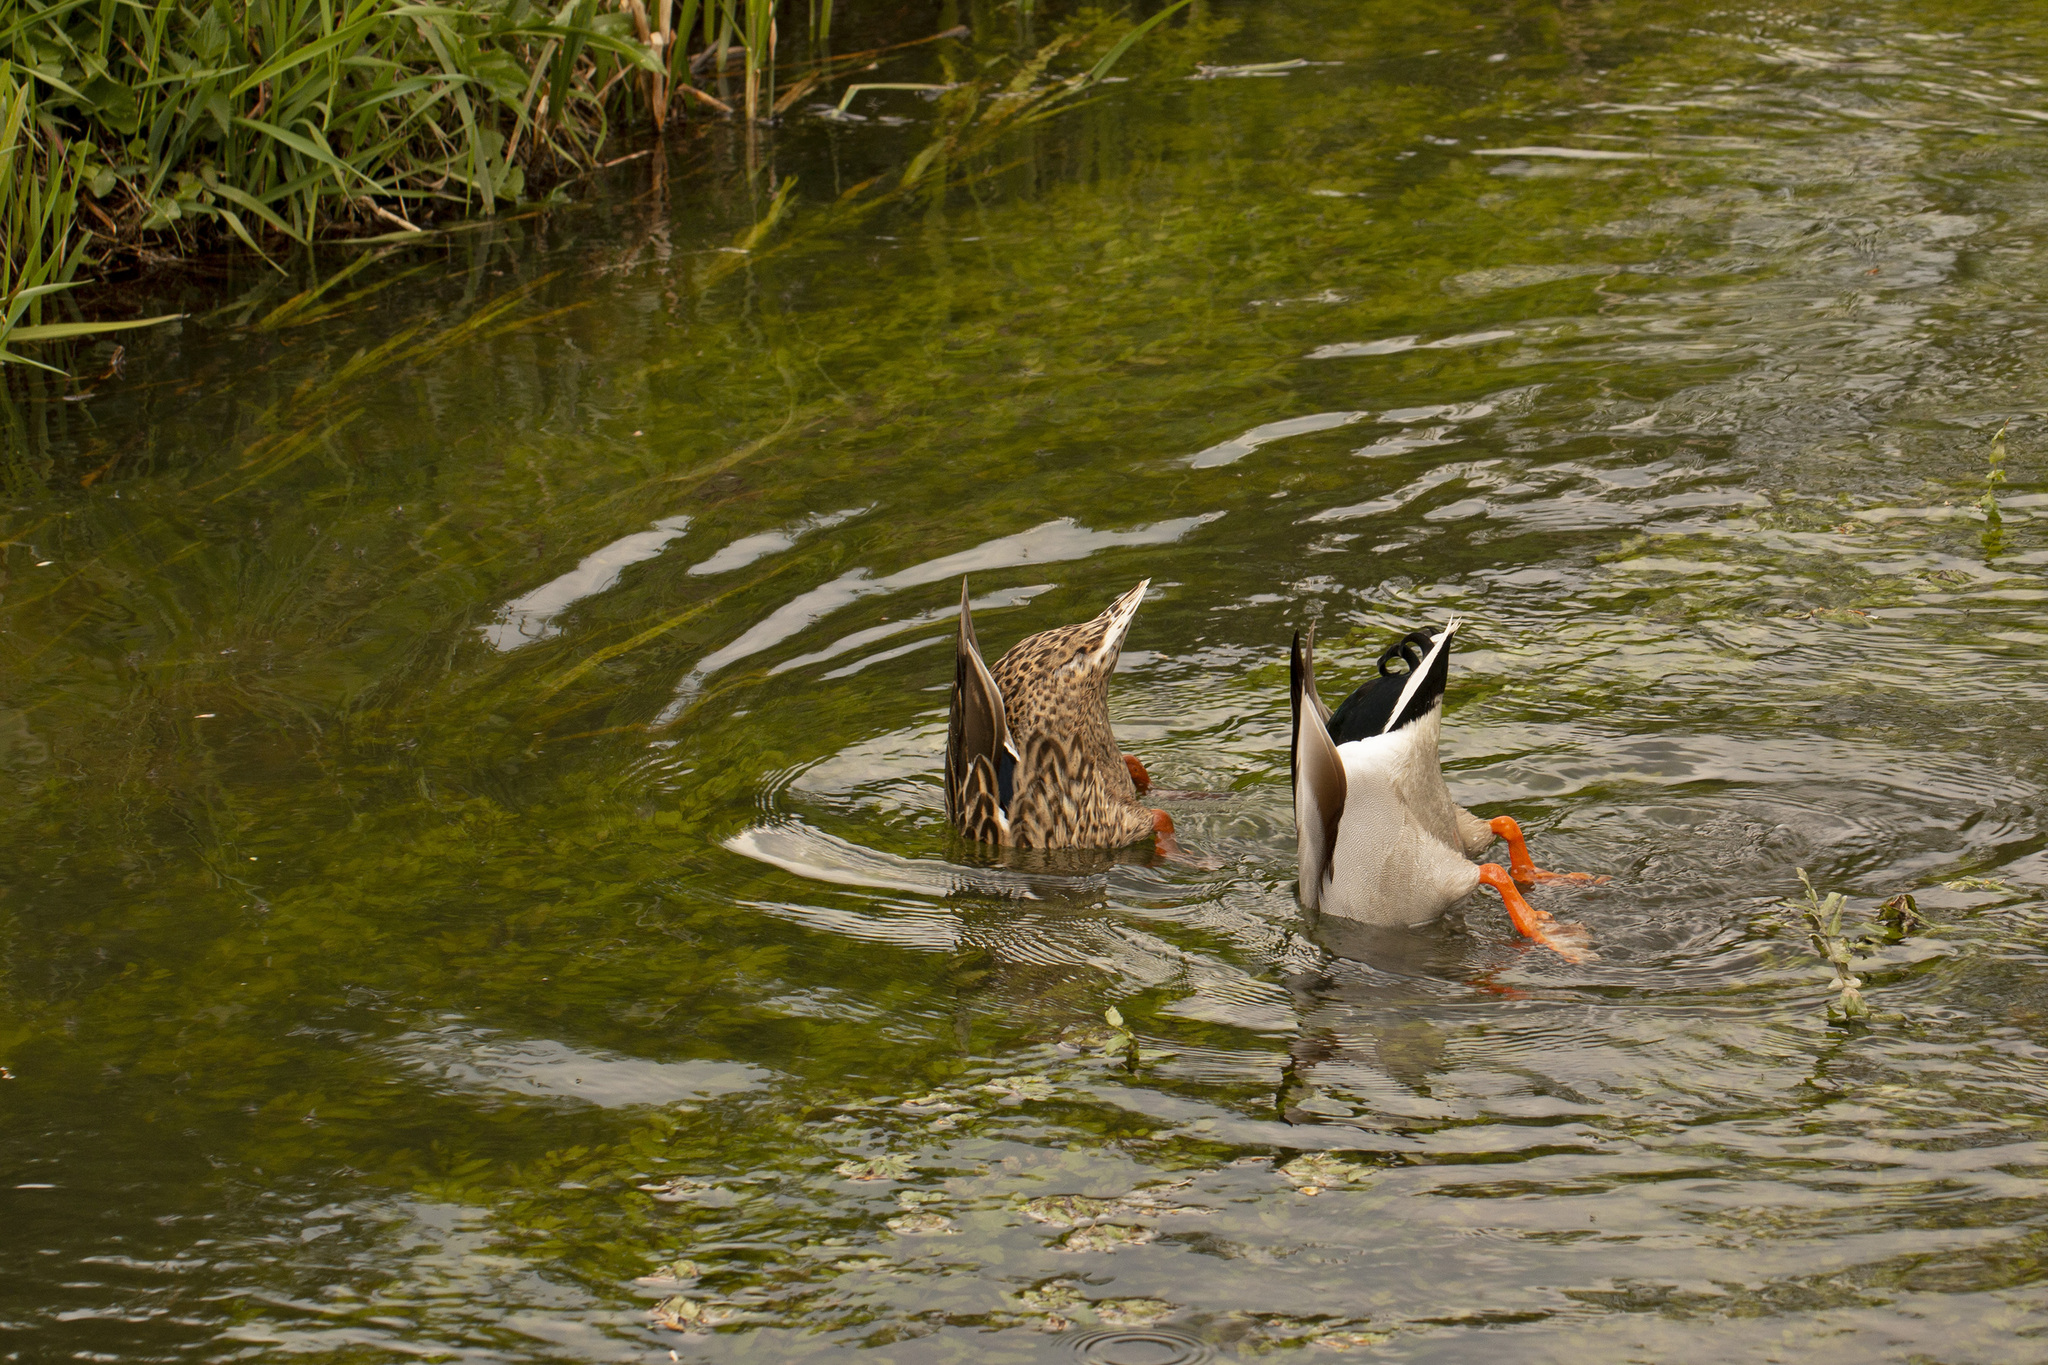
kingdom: Animalia
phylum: Chordata
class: Aves
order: Anseriformes
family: Anatidae
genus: Anas
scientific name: Anas platyrhynchos
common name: Mallard
